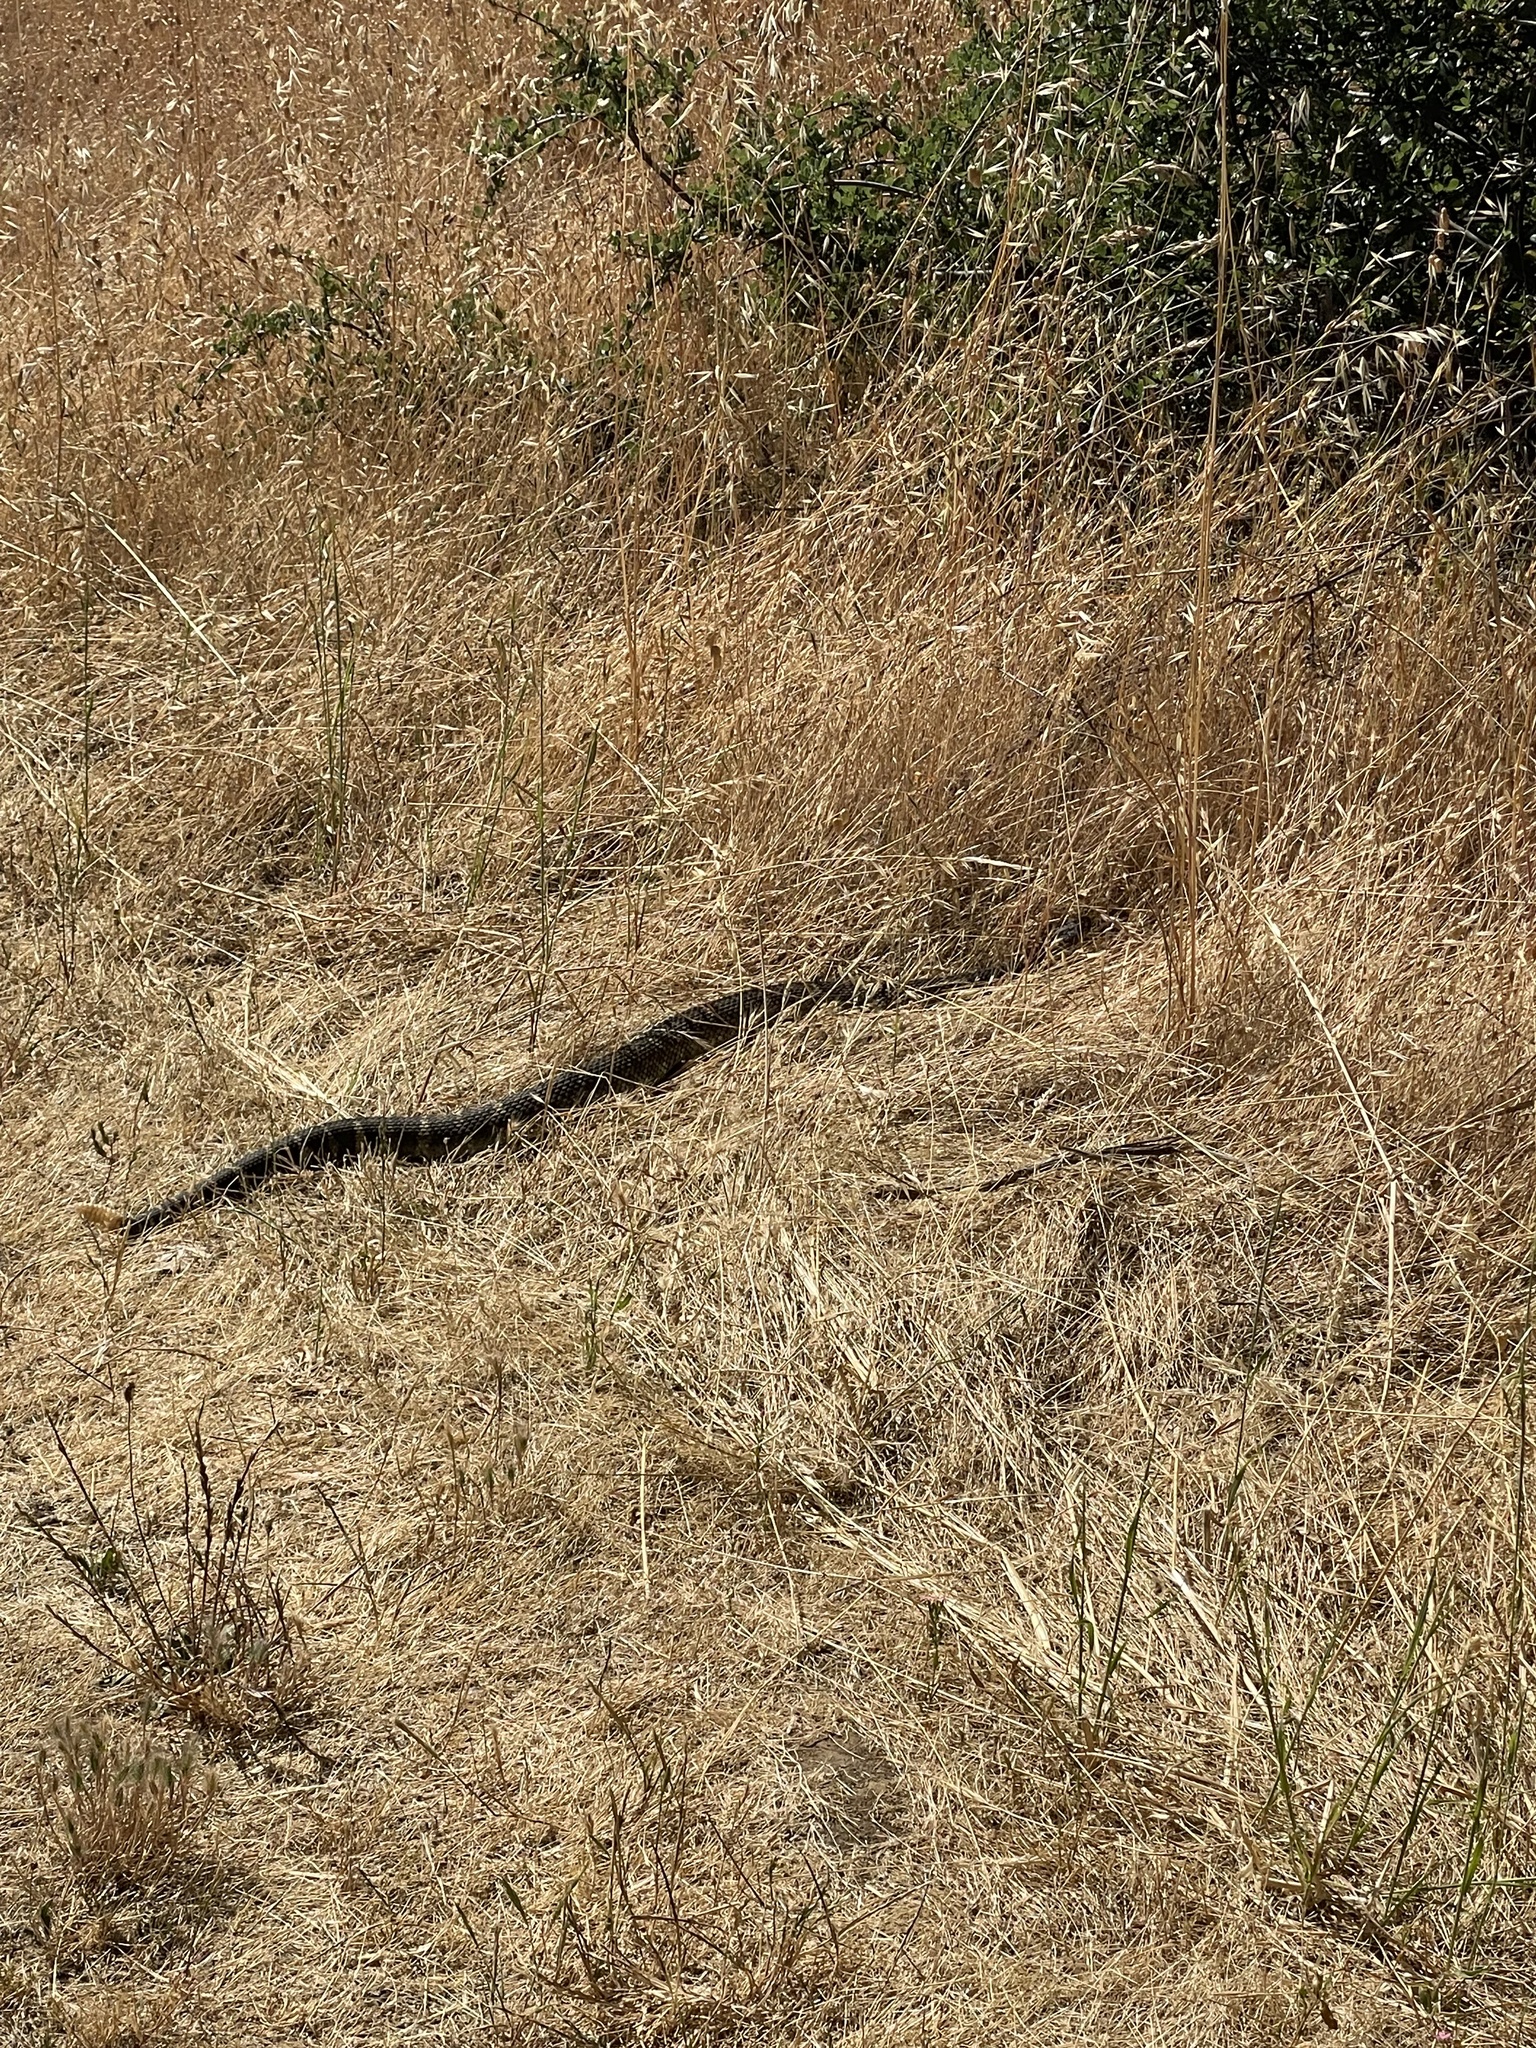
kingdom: Animalia
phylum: Chordata
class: Squamata
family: Viperidae
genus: Crotalus
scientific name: Crotalus oreganus
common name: Abyssus
